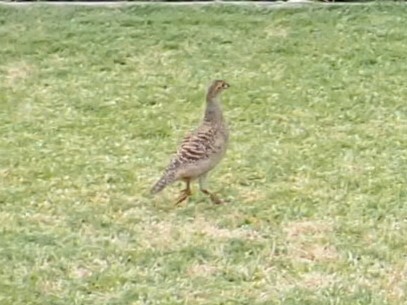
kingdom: Animalia
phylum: Chordata
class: Aves
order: Galliformes
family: Phasianidae
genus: Ortygornis
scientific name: Ortygornis pondicerianus
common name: Grey francolin
